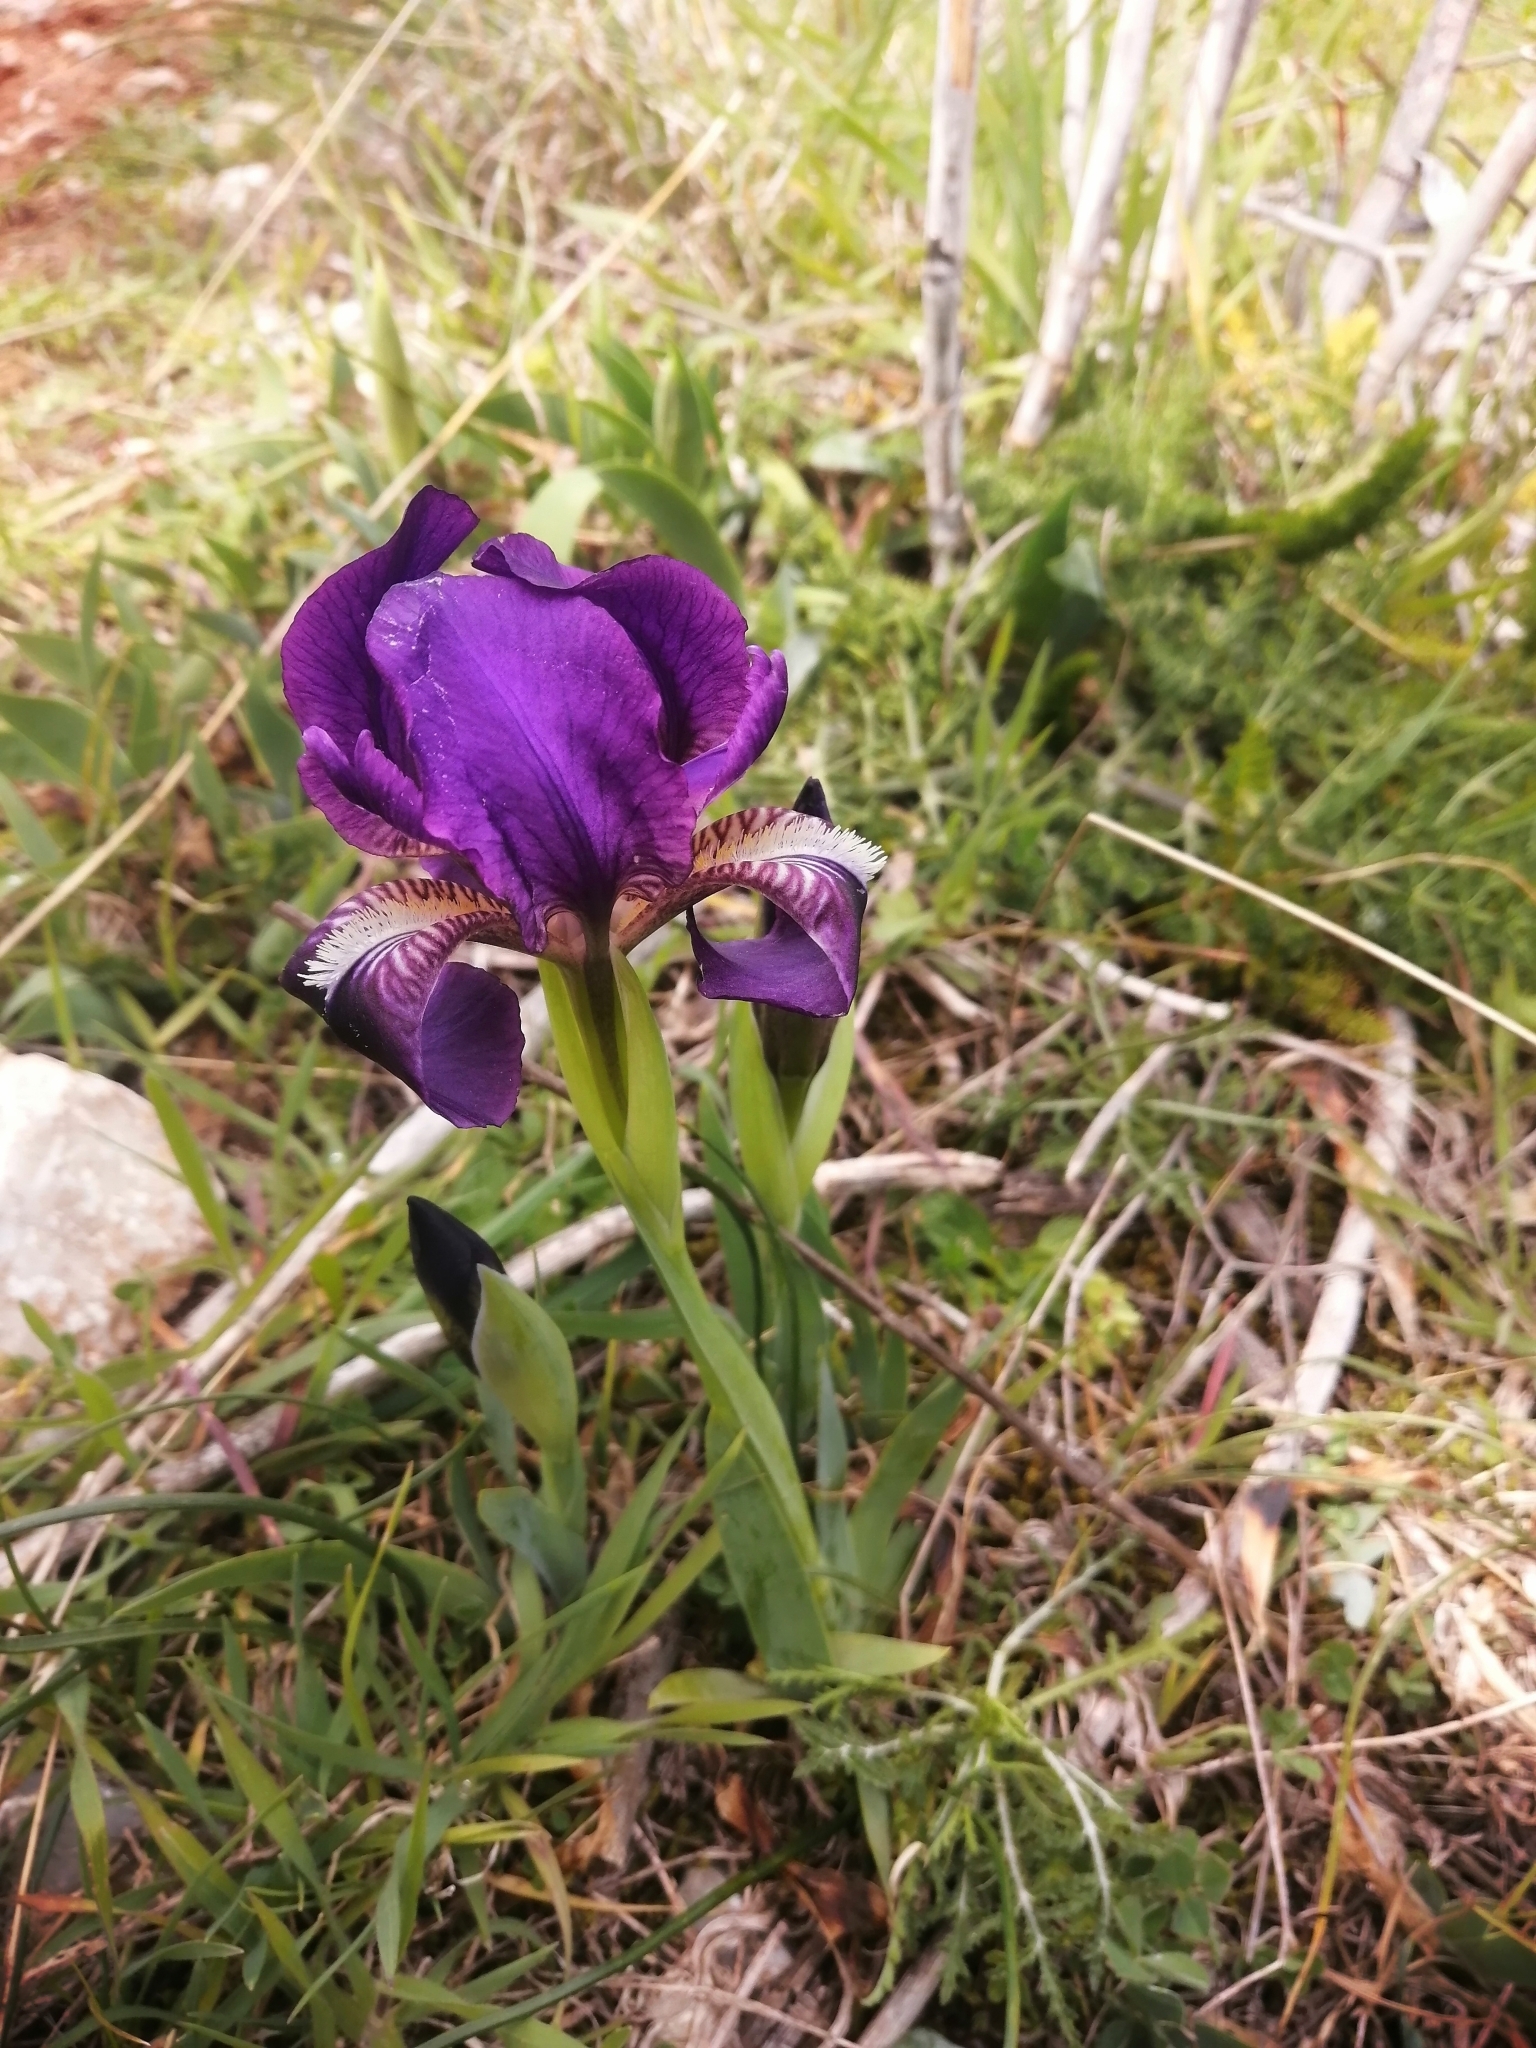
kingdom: Plantae
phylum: Tracheophyta
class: Liliopsida
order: Asparagales
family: Iridaceae
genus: Iris
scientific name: Iris lutescens
